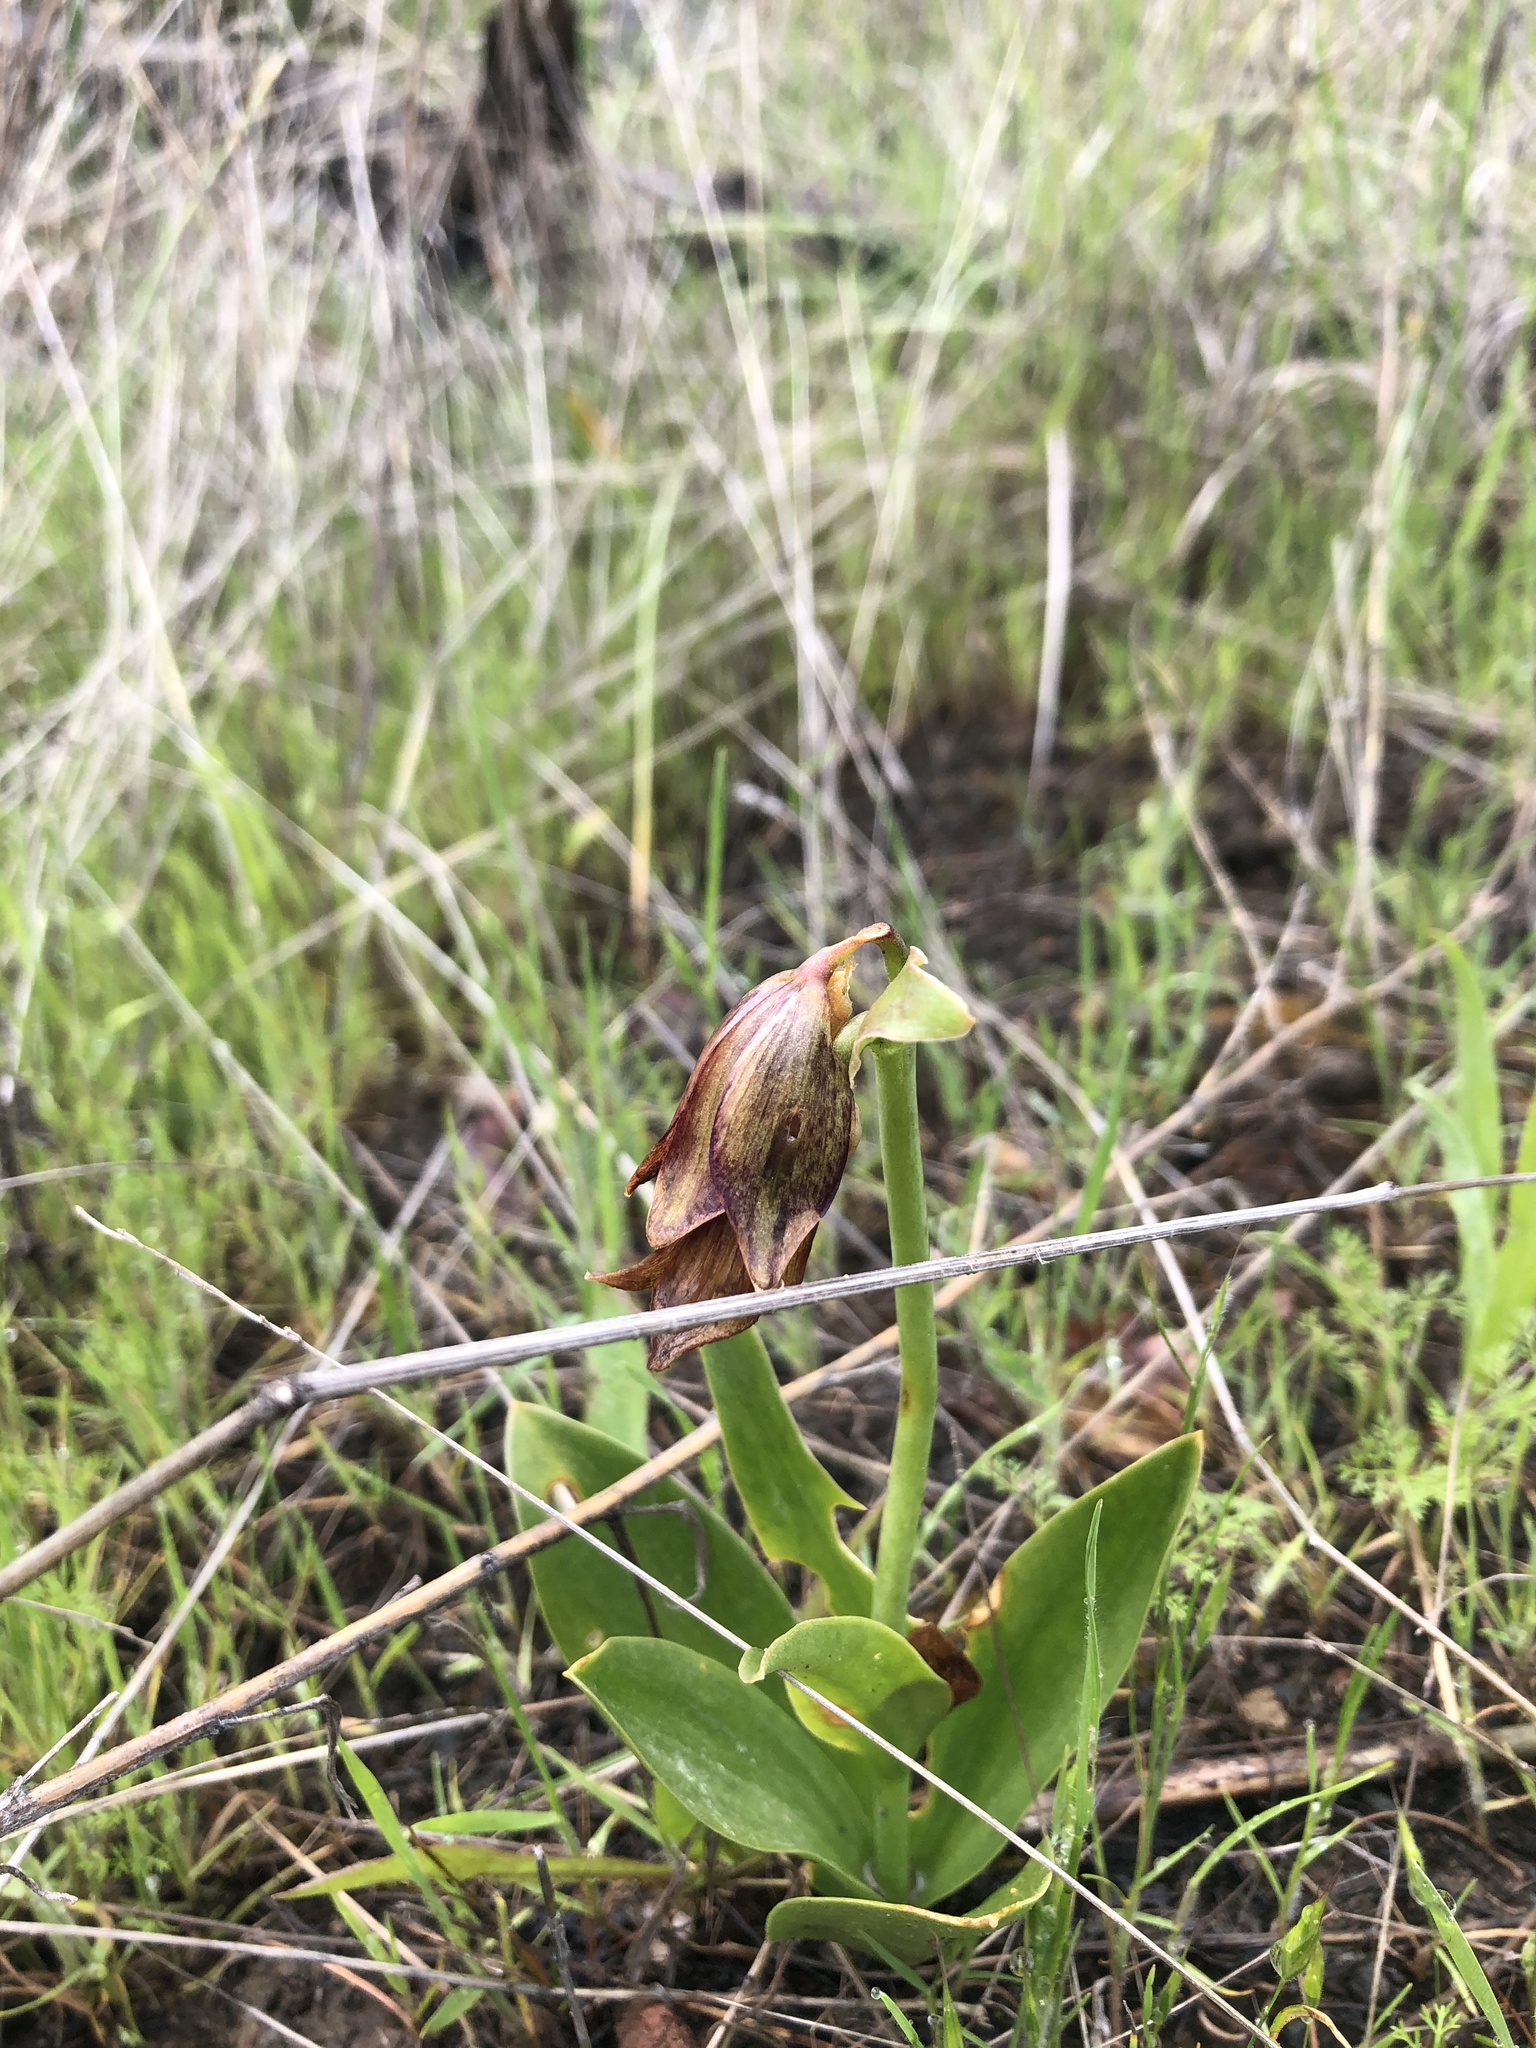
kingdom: Plantae
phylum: Tracheophyta
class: Liliopsida
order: Liliales
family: Liliaceae
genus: Fritillaria
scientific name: Fritillaria biflora
